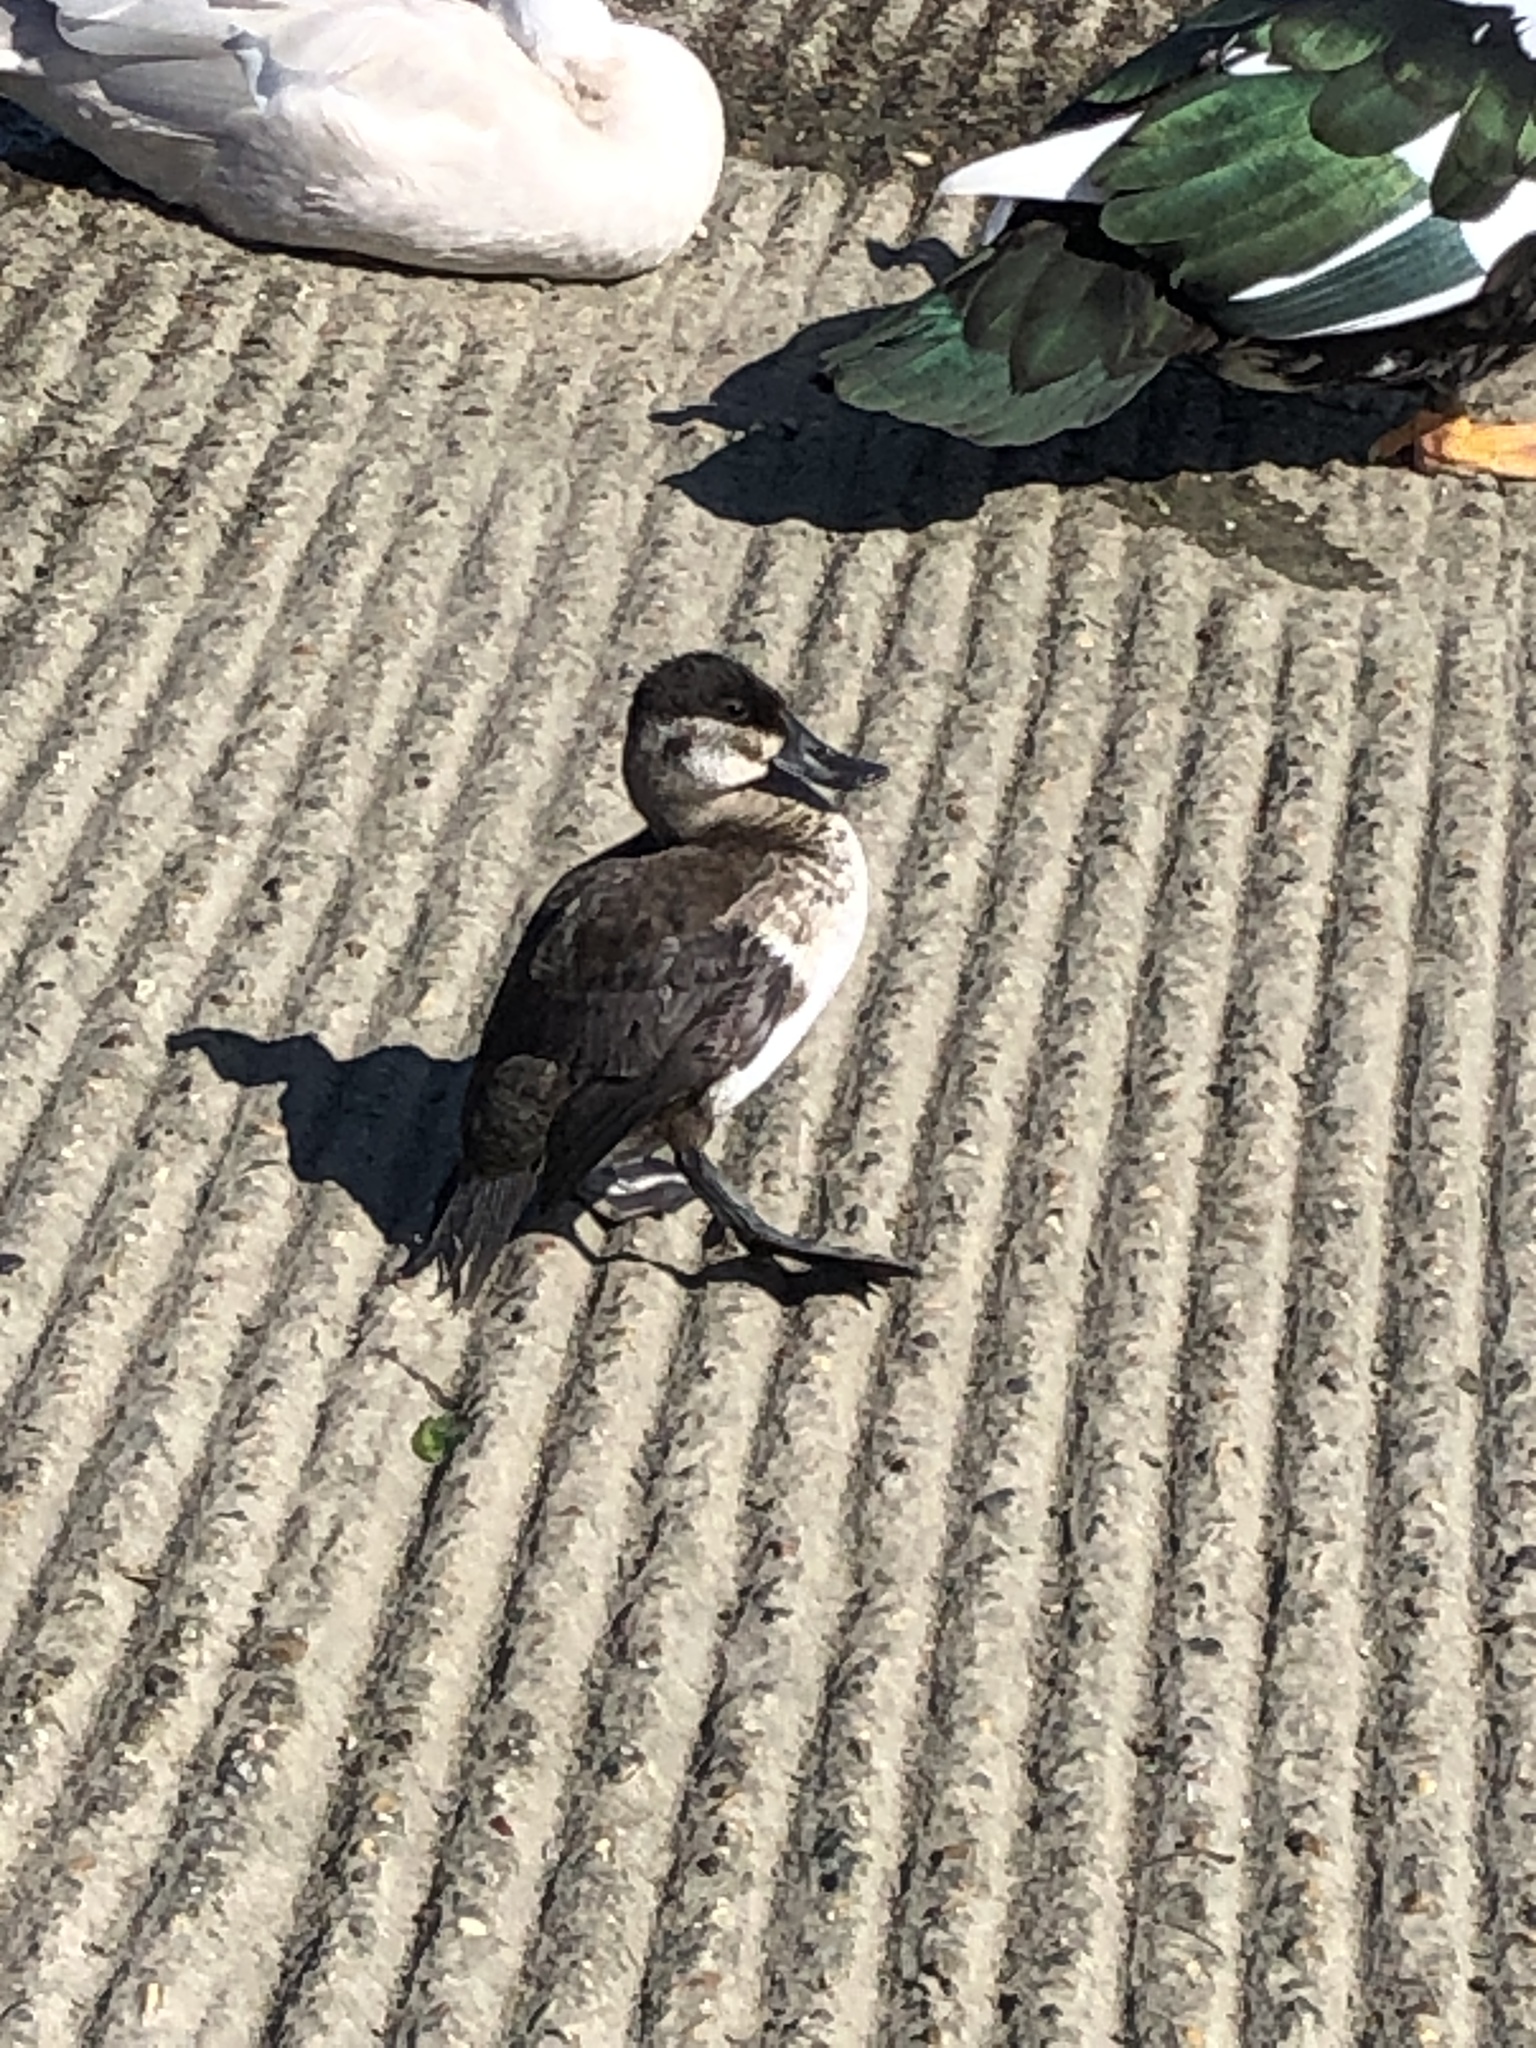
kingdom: Animalia
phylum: Chordata
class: Aves
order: Anseriformes
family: Anatidae
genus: Oxyura
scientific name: Oxyura jamaicensis
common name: Ruddy duck
